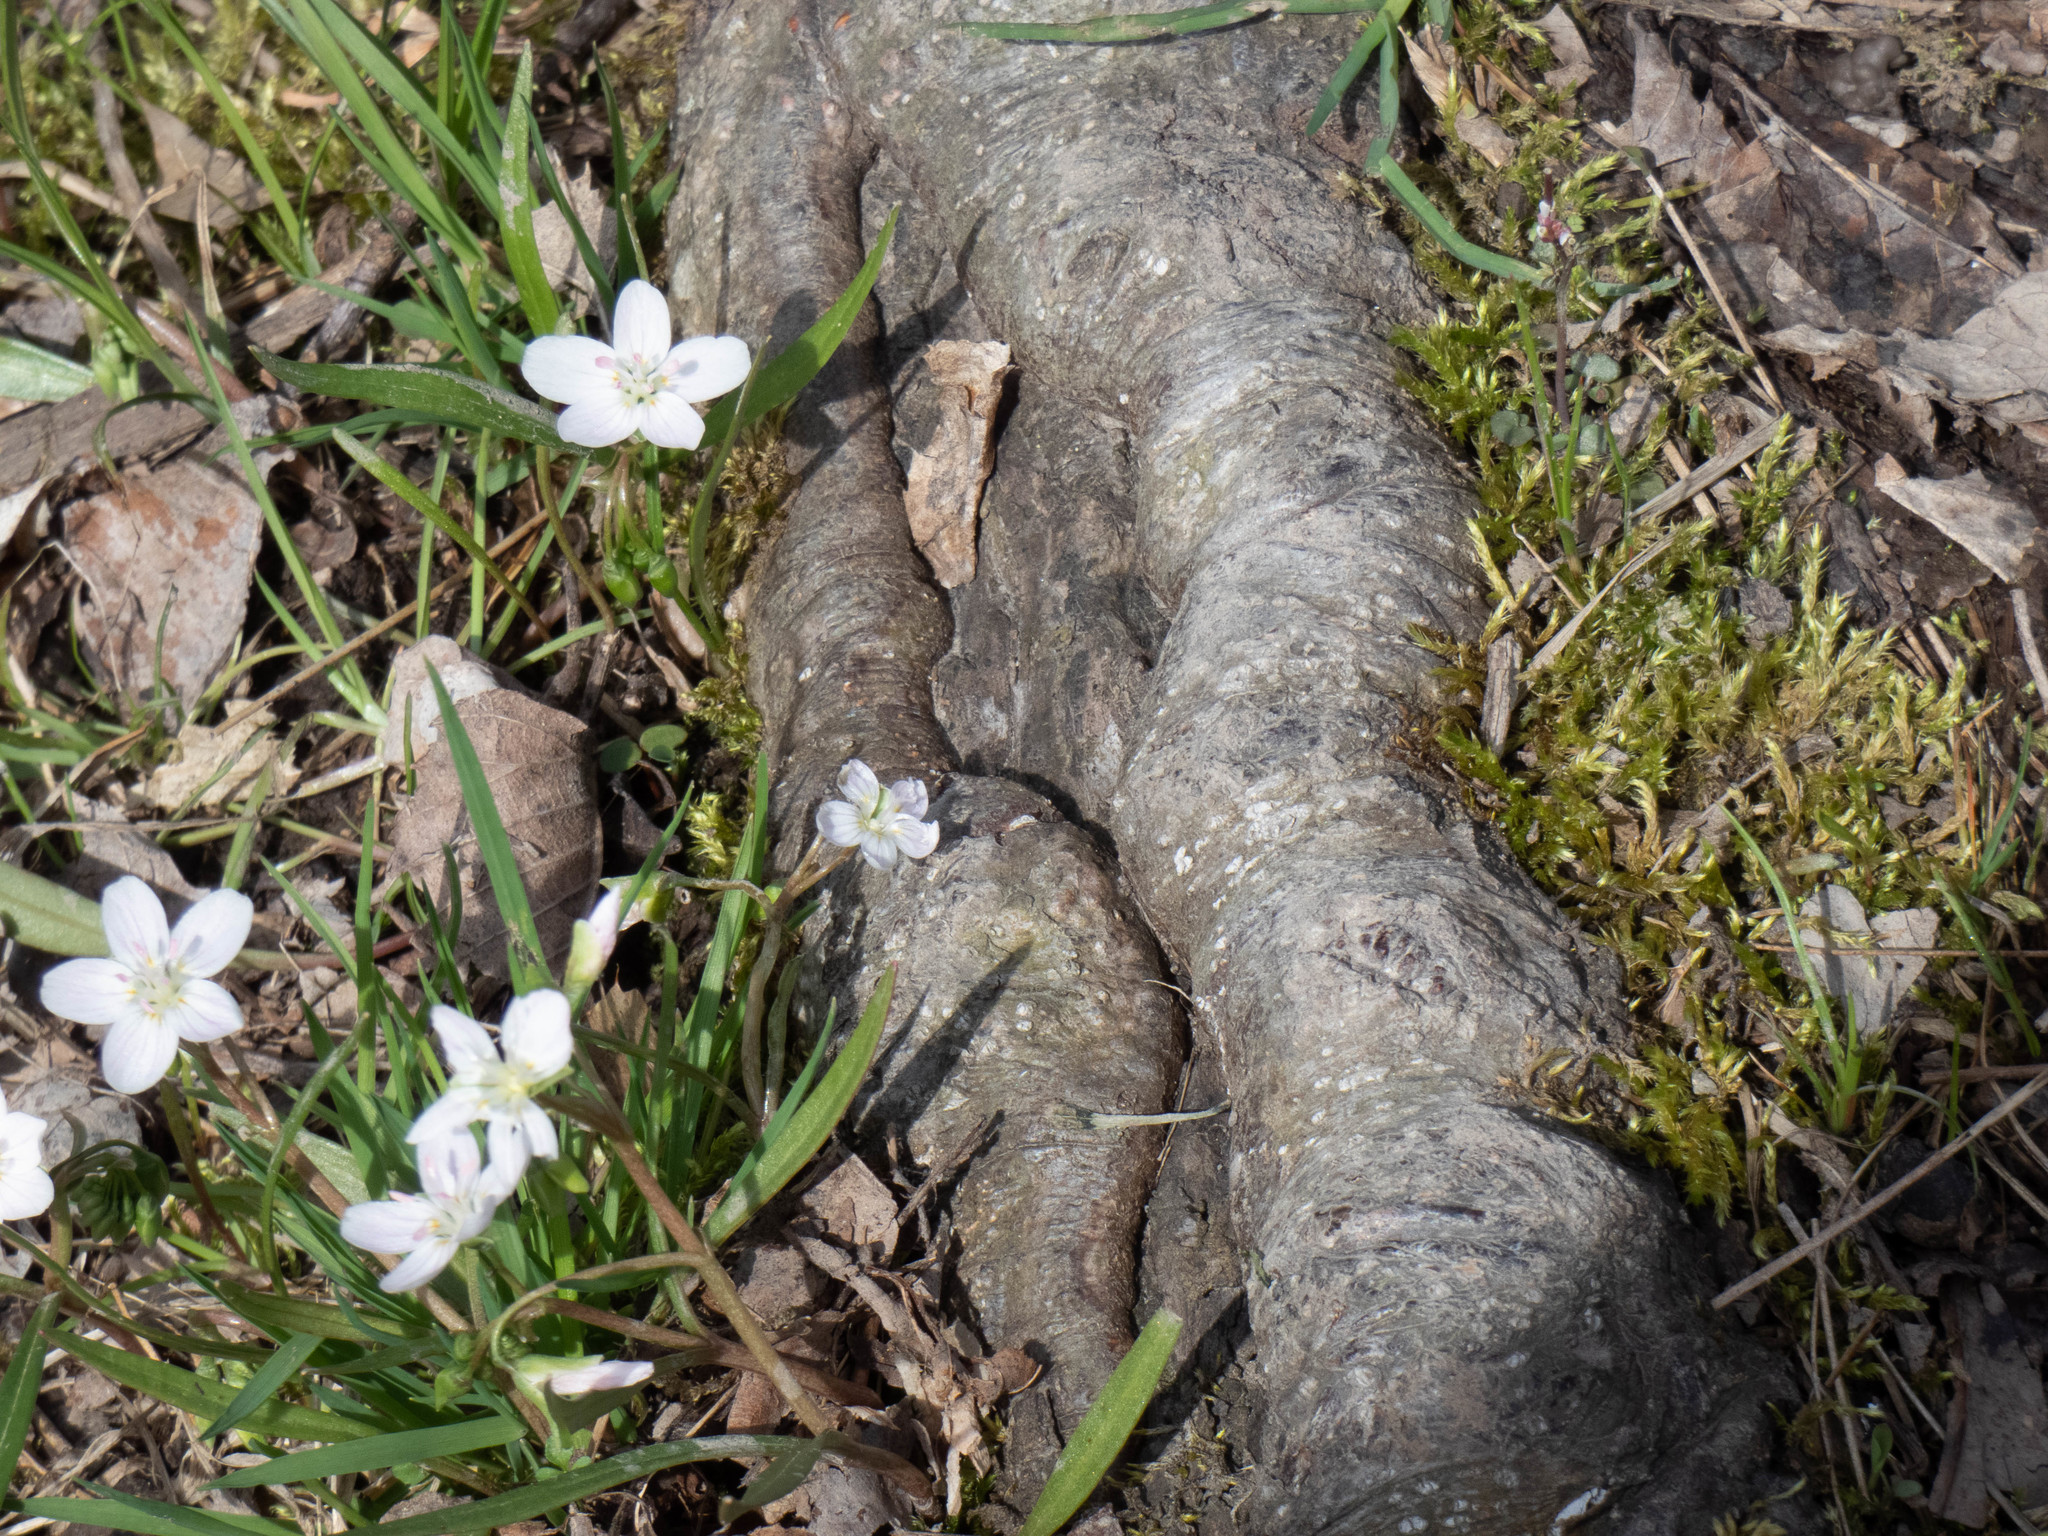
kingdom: Plantae
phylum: Tracheophyta
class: Magnoliopsida
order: Caryophyllales
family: Montiaceae
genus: Claytonia
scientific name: Claytonia virginica
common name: Virginia springbeauty
